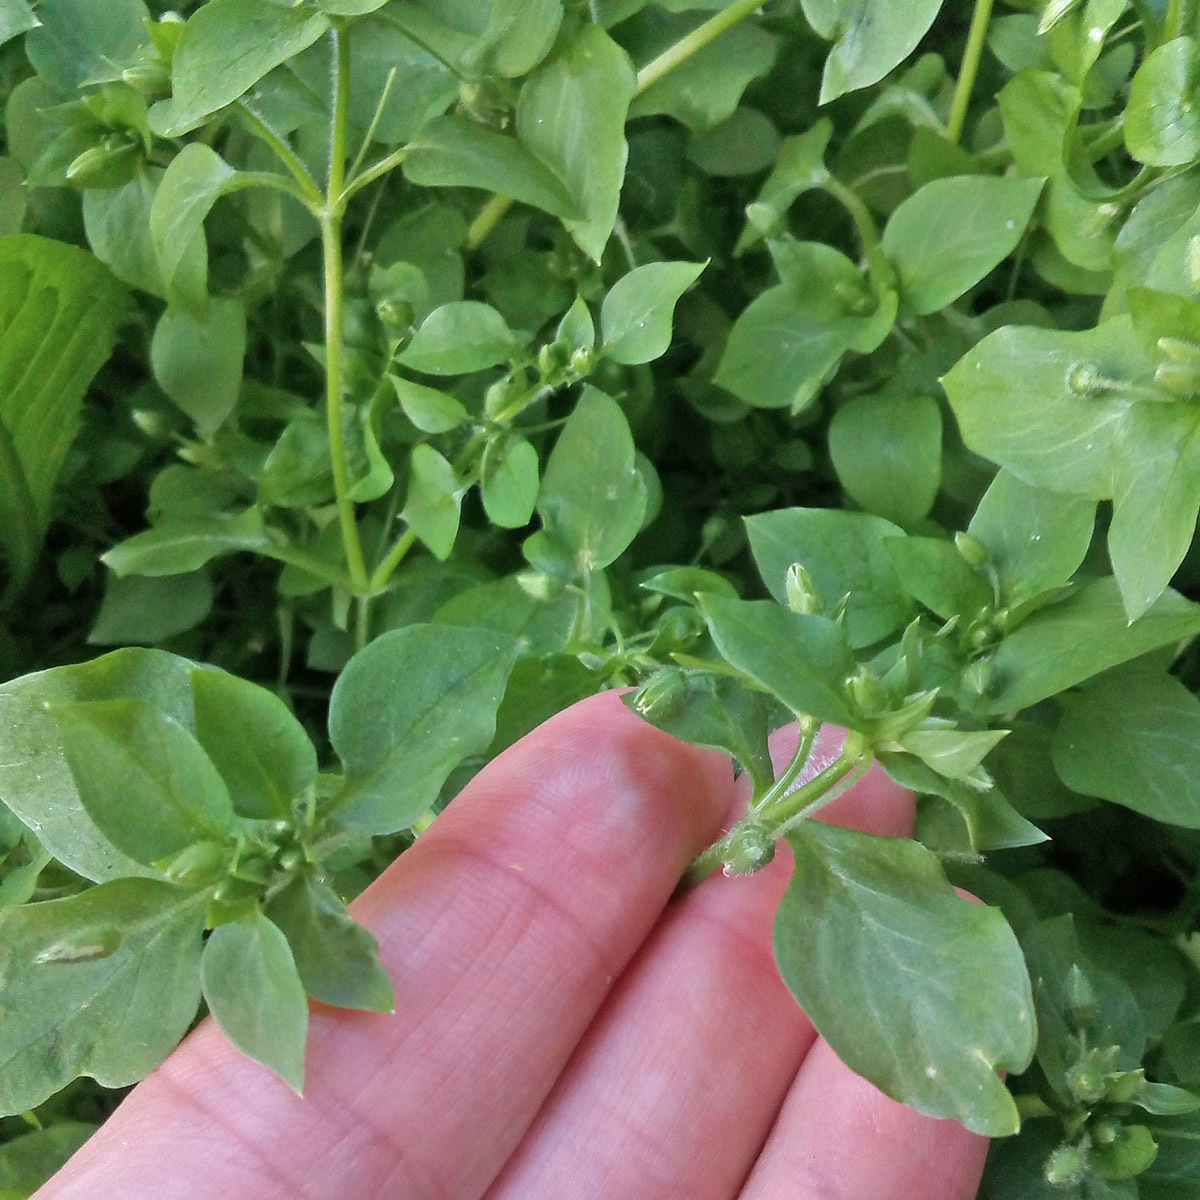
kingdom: Plantae
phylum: Tracheophyta
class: Magnoliopsida
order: Caryophyllales
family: Caryophyllaceae
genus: Stellaria
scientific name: Stellaria media
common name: Common chickweed
